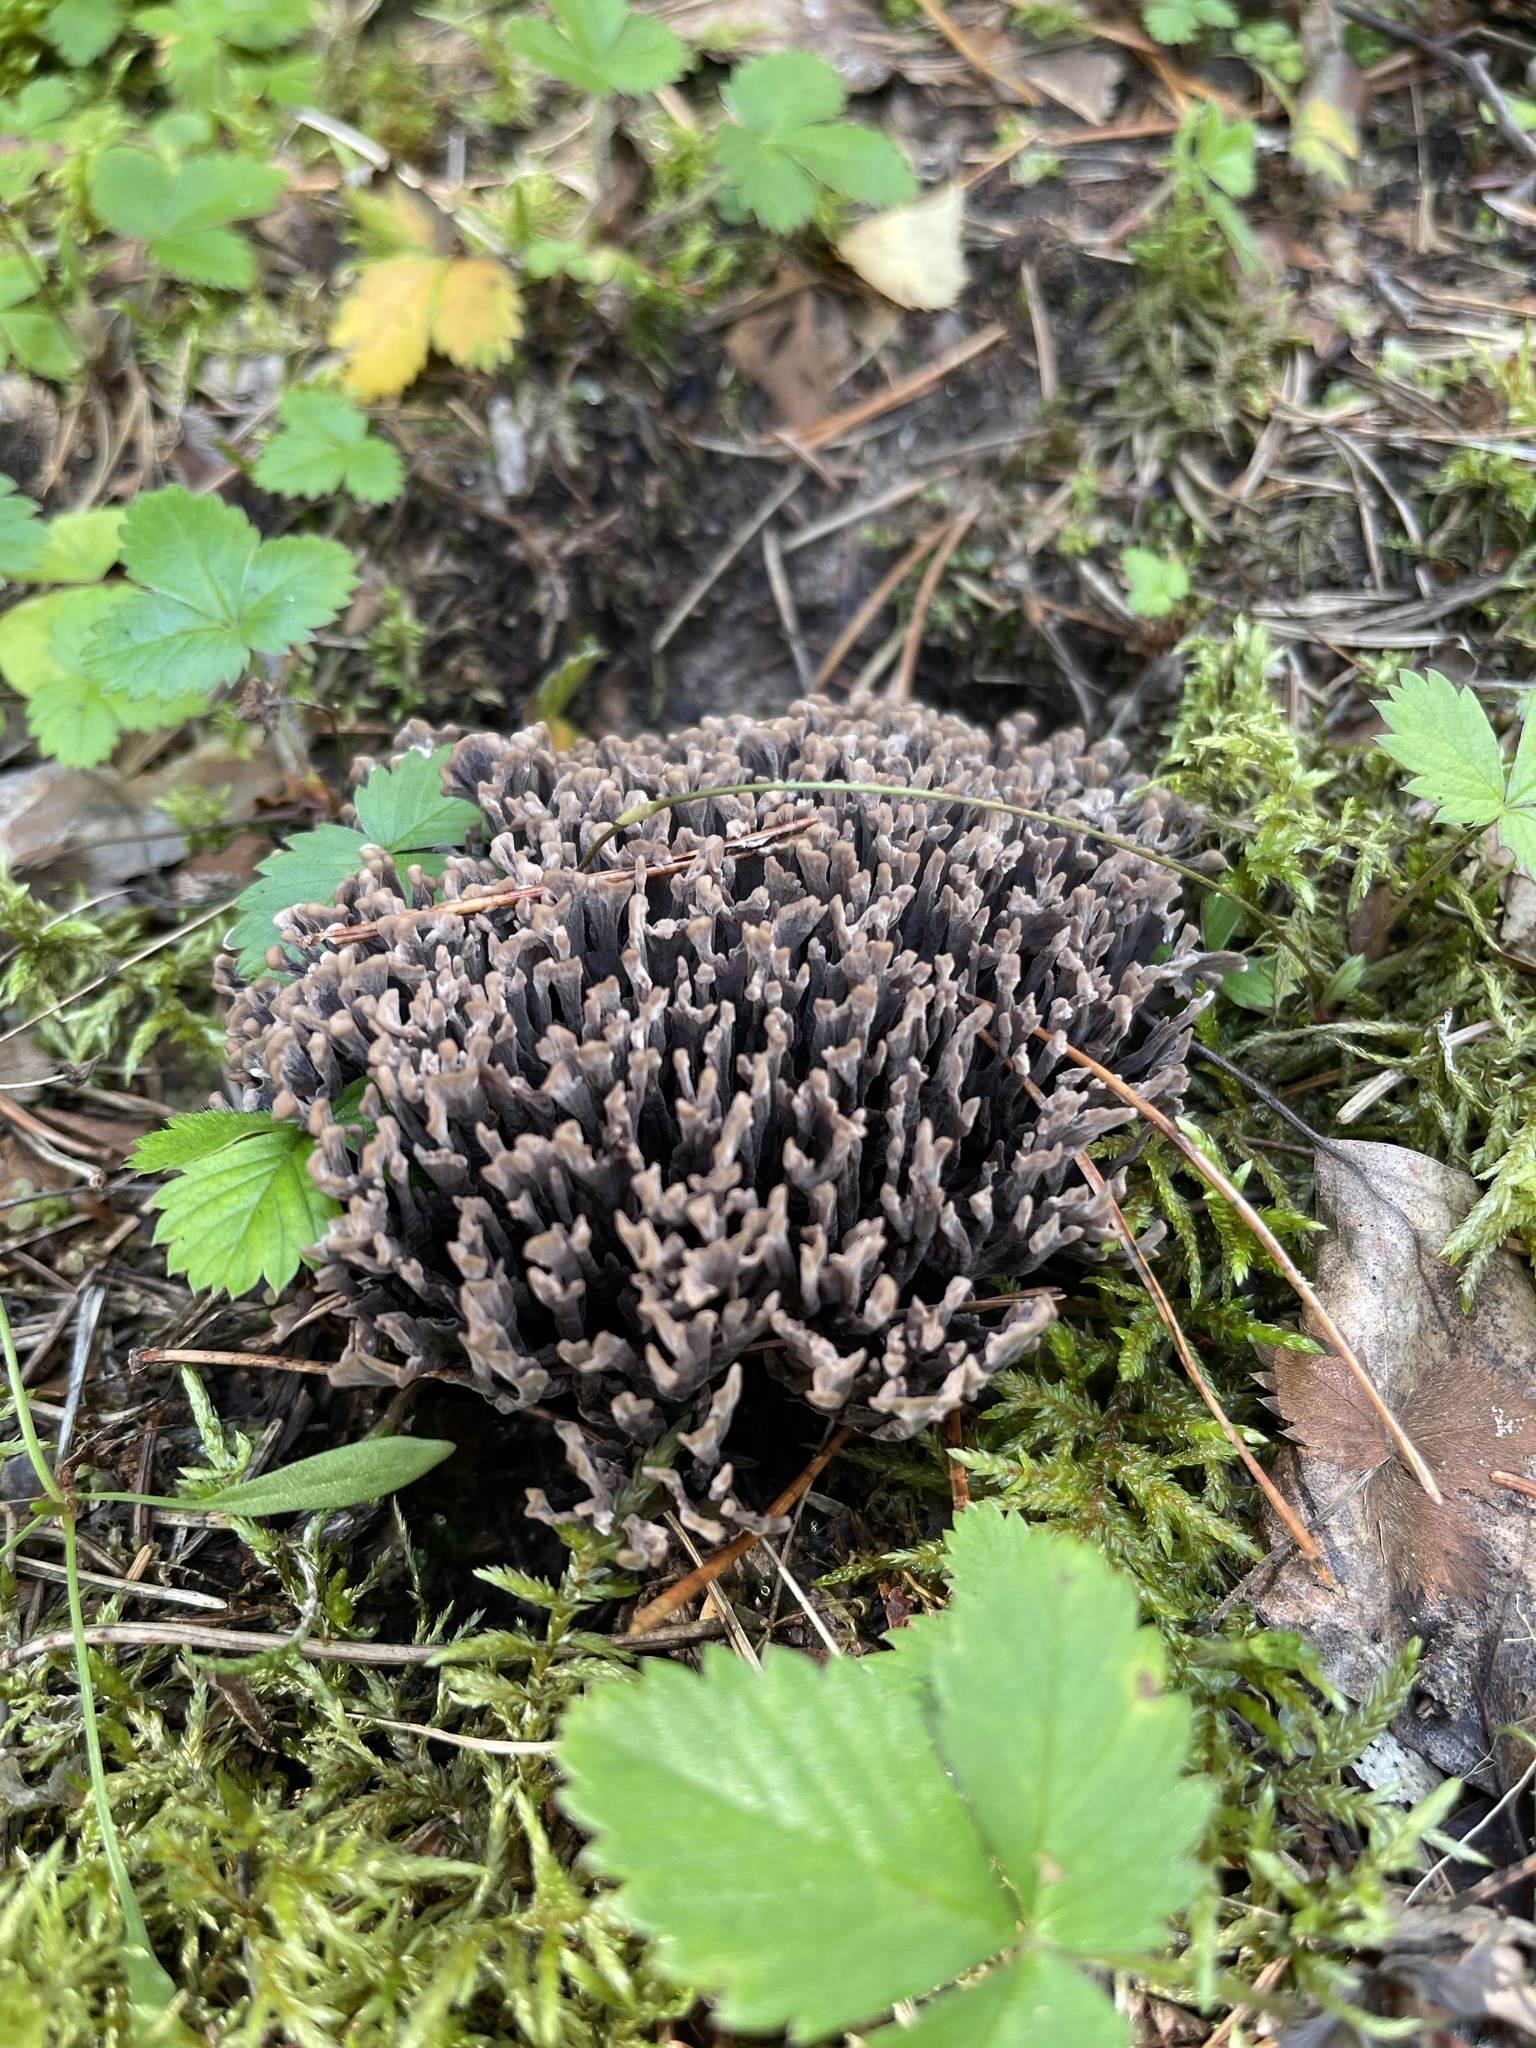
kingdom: Fungi
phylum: Basidiomycota
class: Agaricomycetes
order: Thelephorales
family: Thelephoraceae
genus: Thelephora
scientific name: Thelephora palmata
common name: Stinking earthfan
